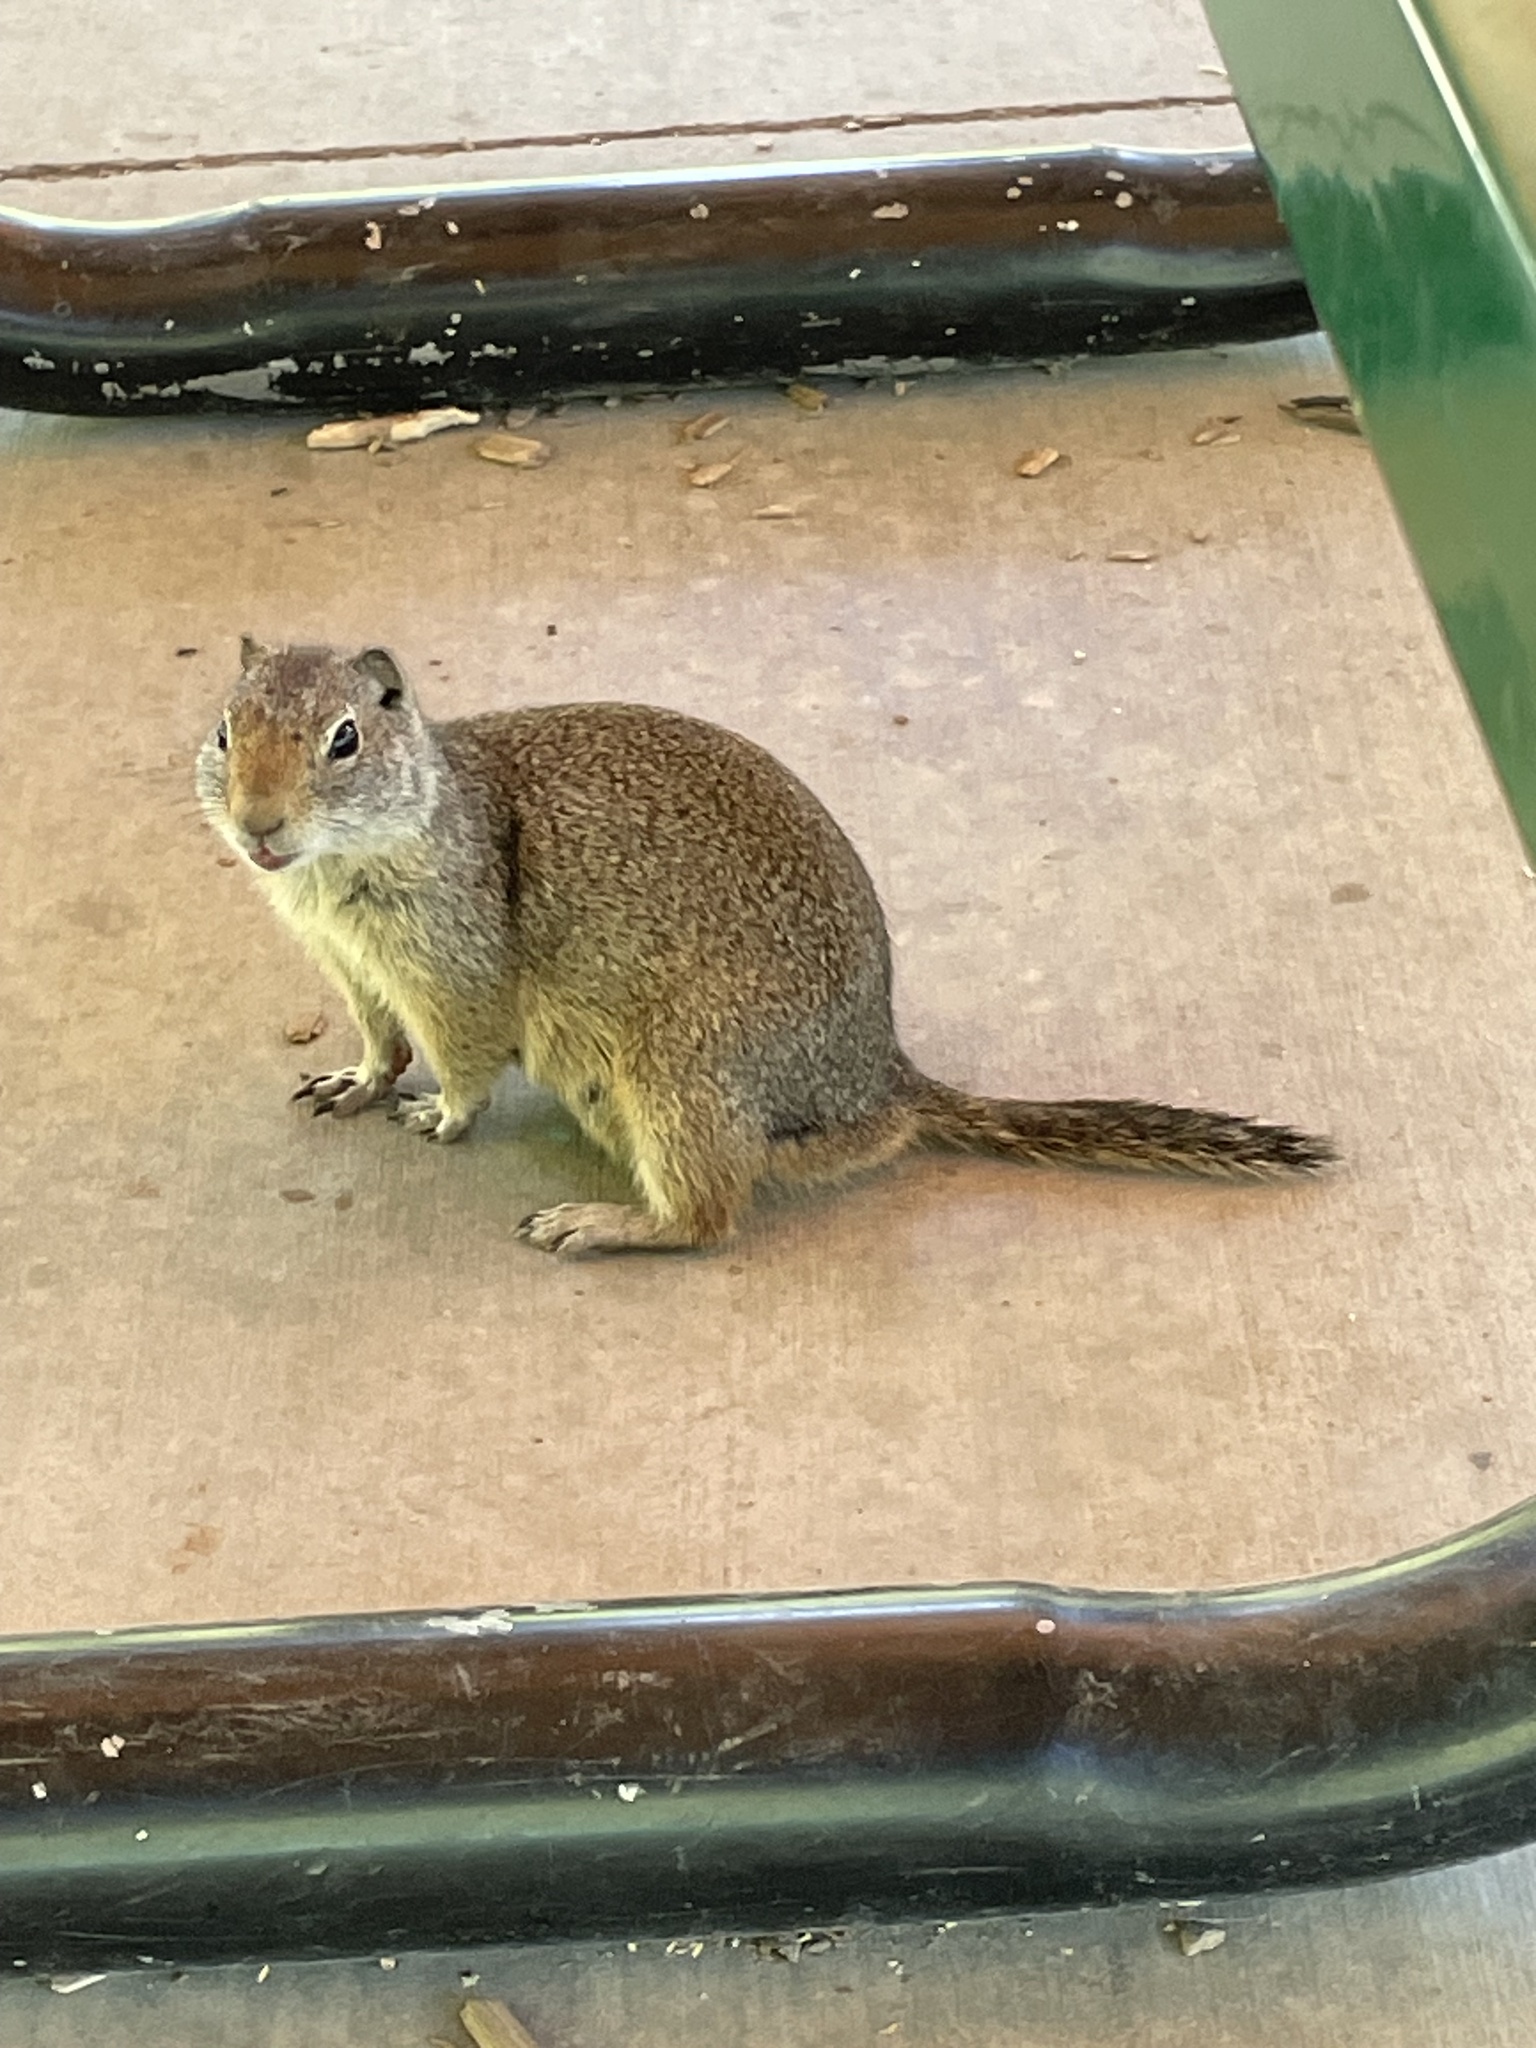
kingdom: Animalia
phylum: Chordata
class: Mammalia
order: Rodentia
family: Sciuridae
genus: Urocitellus
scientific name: Urocitellus armatus
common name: Uinta ground squirrel
